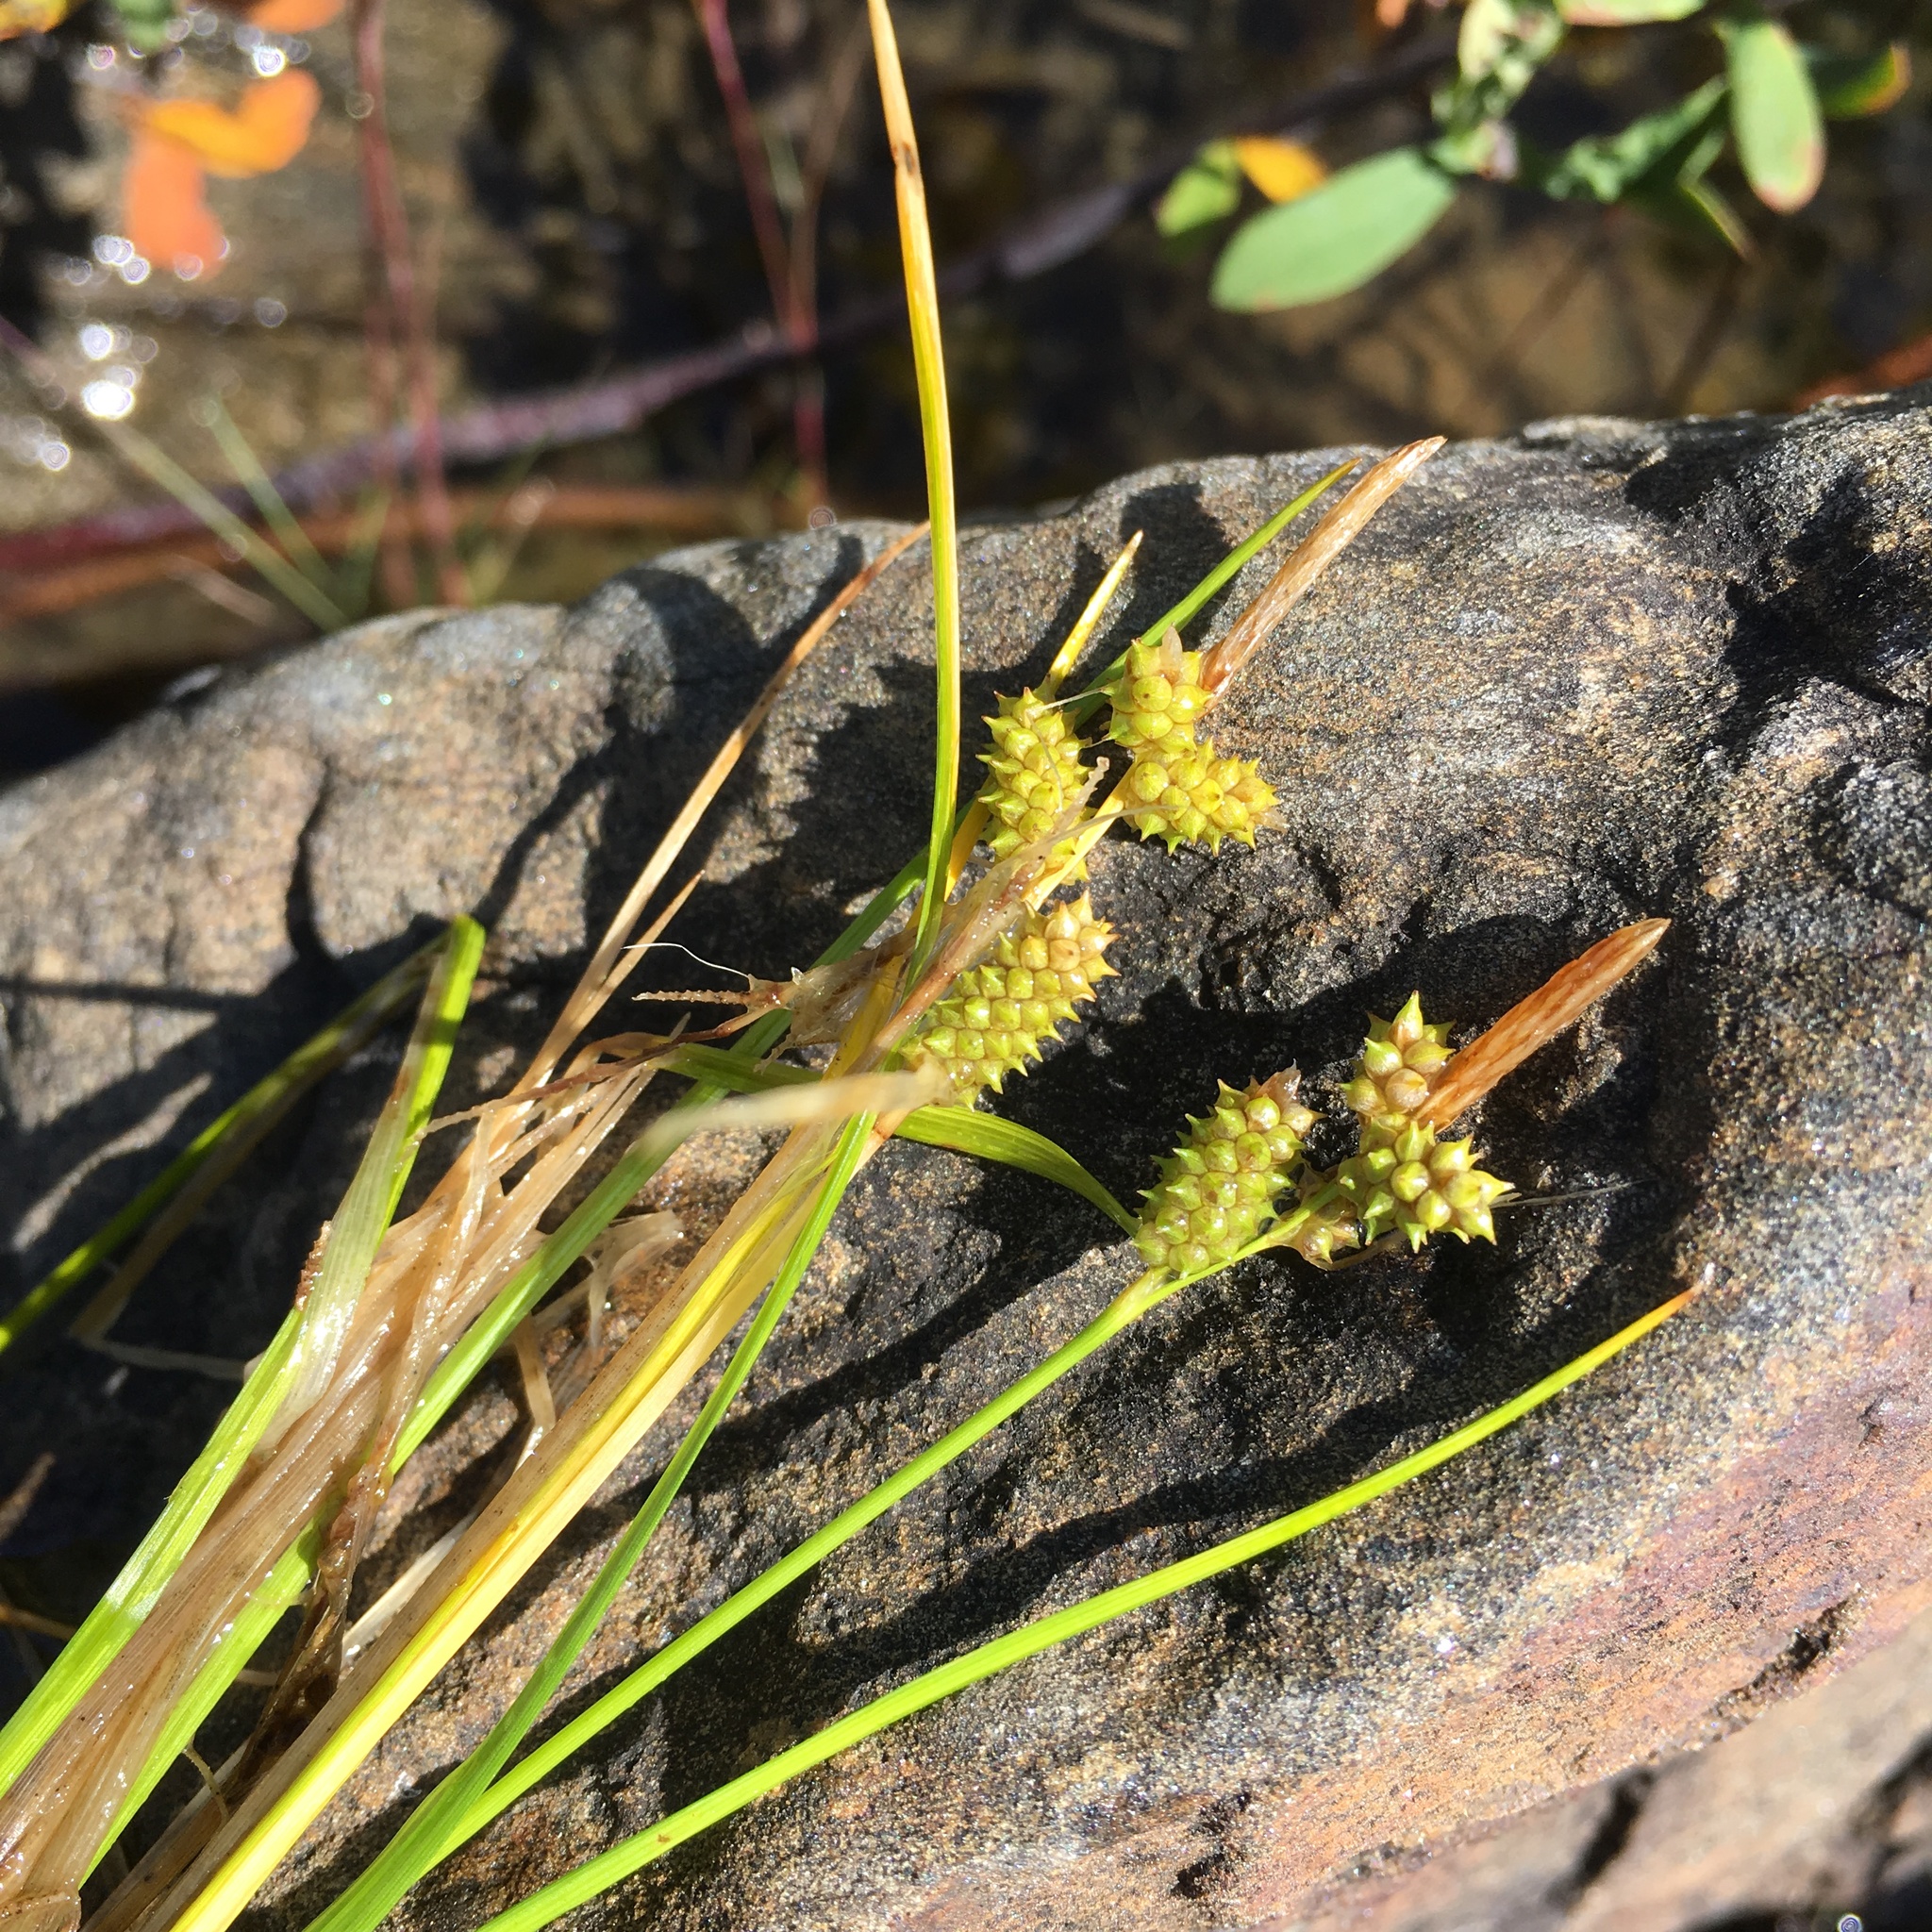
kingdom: Plantae
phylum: Tracheophyta
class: Liliopsida
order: Poales
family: Cyperaceae
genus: Carex
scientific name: Carex oederi
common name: Common & small-fruited yellow-sedge
